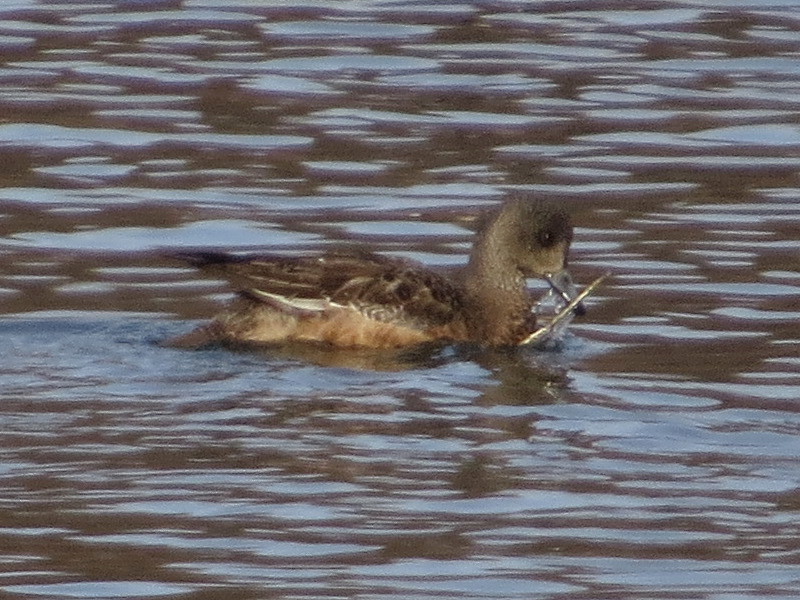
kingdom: Animalia
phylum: Chordata
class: Aves
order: Anseriformes
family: Anatidae
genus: Mareca
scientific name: Mareca americana
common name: American wigeon
